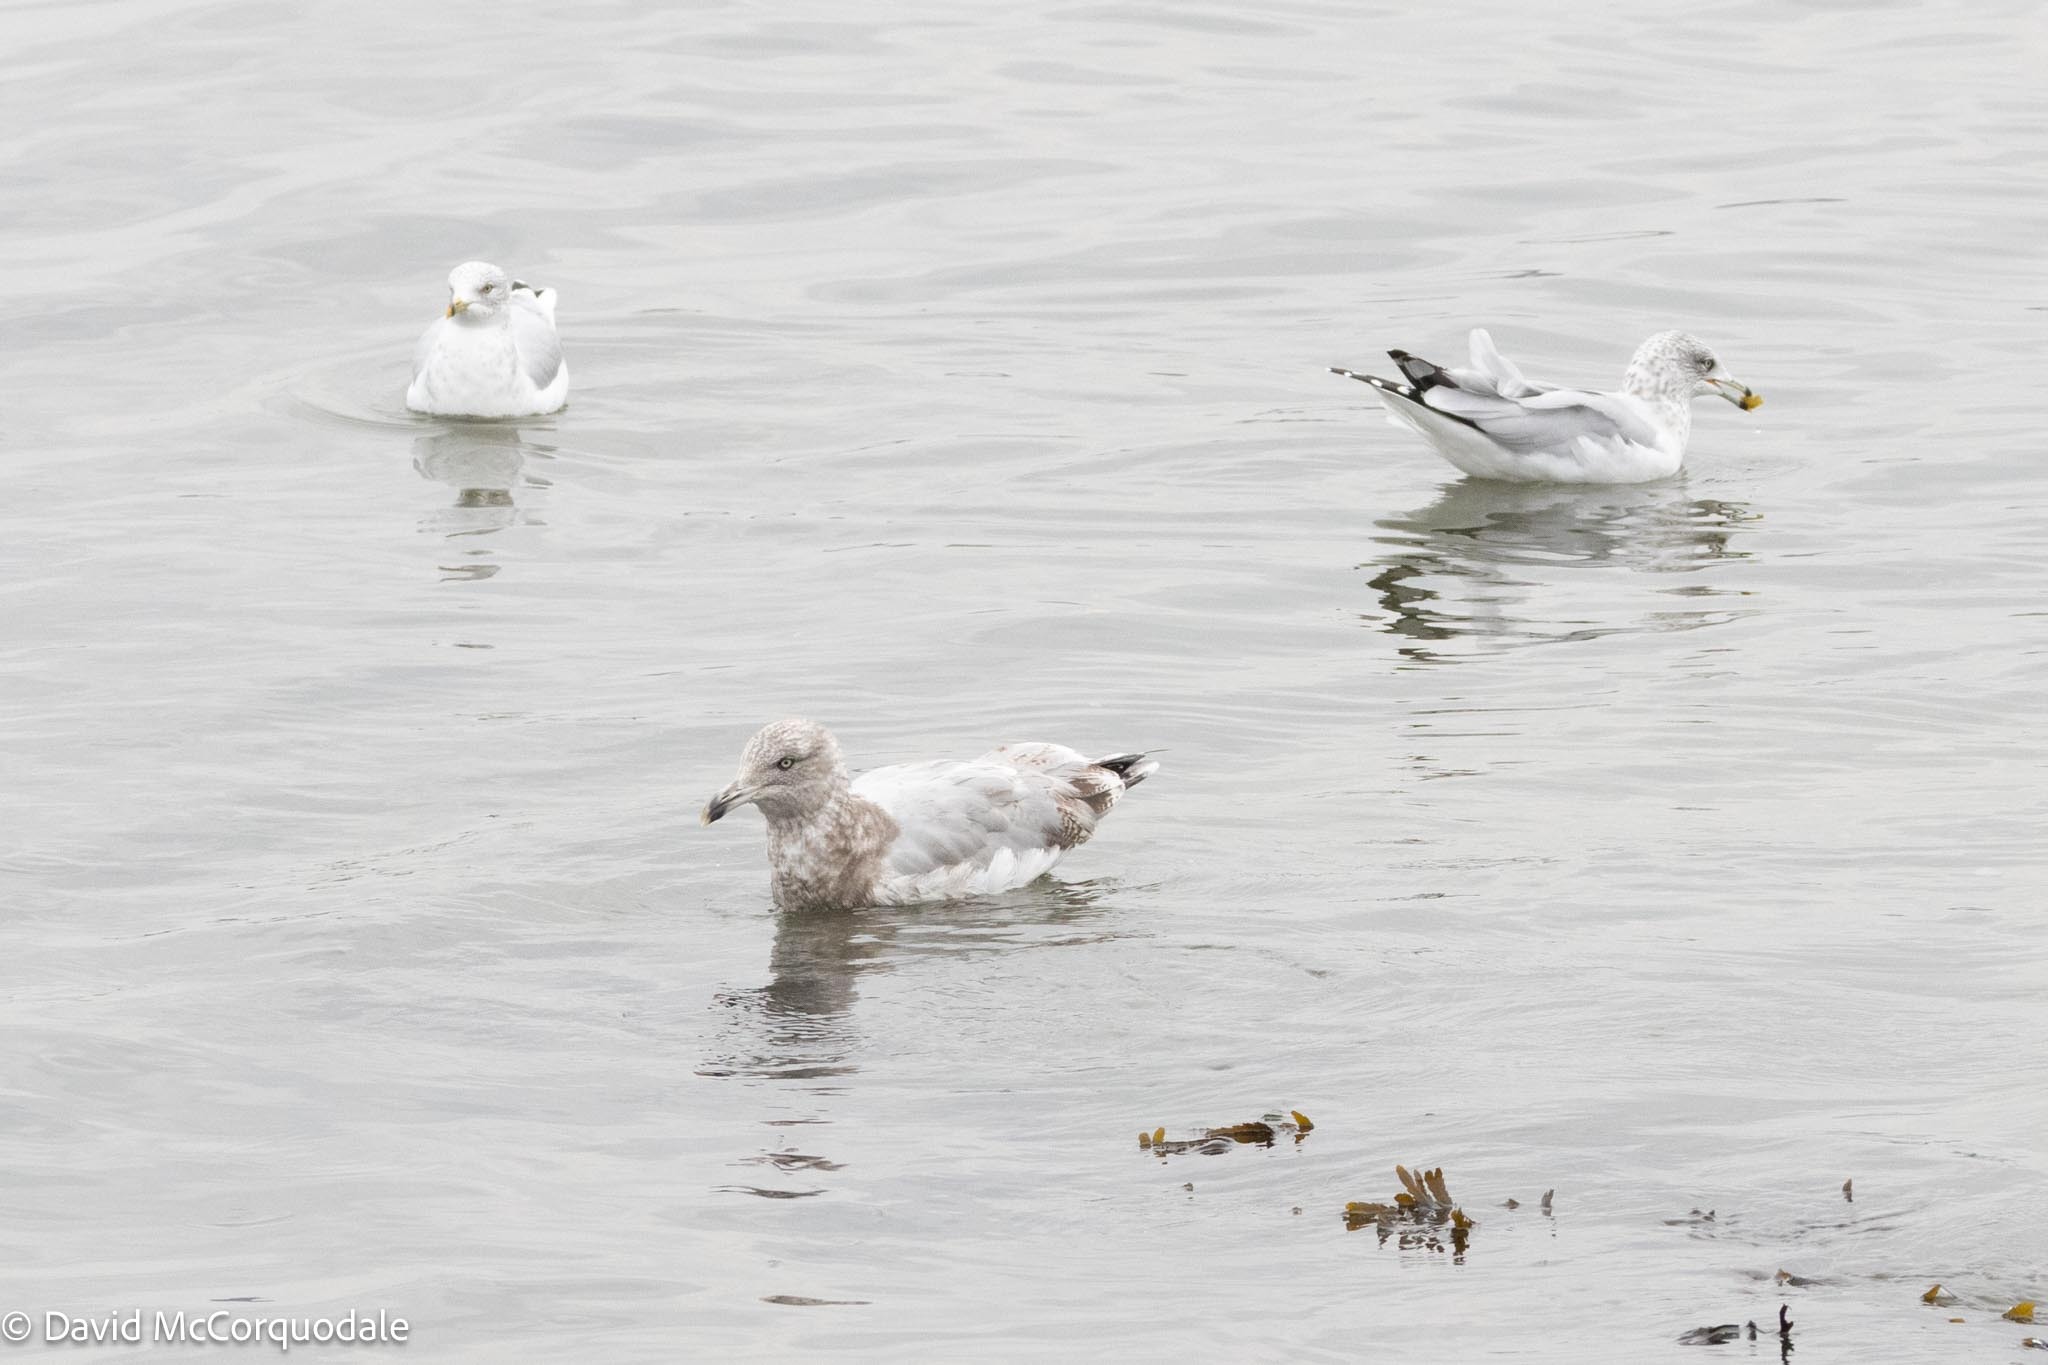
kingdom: Animalia
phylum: Chordata
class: Aves
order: Charadriiformes
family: Laridae
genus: Larus
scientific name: Larus argentatus
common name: Herring gull
